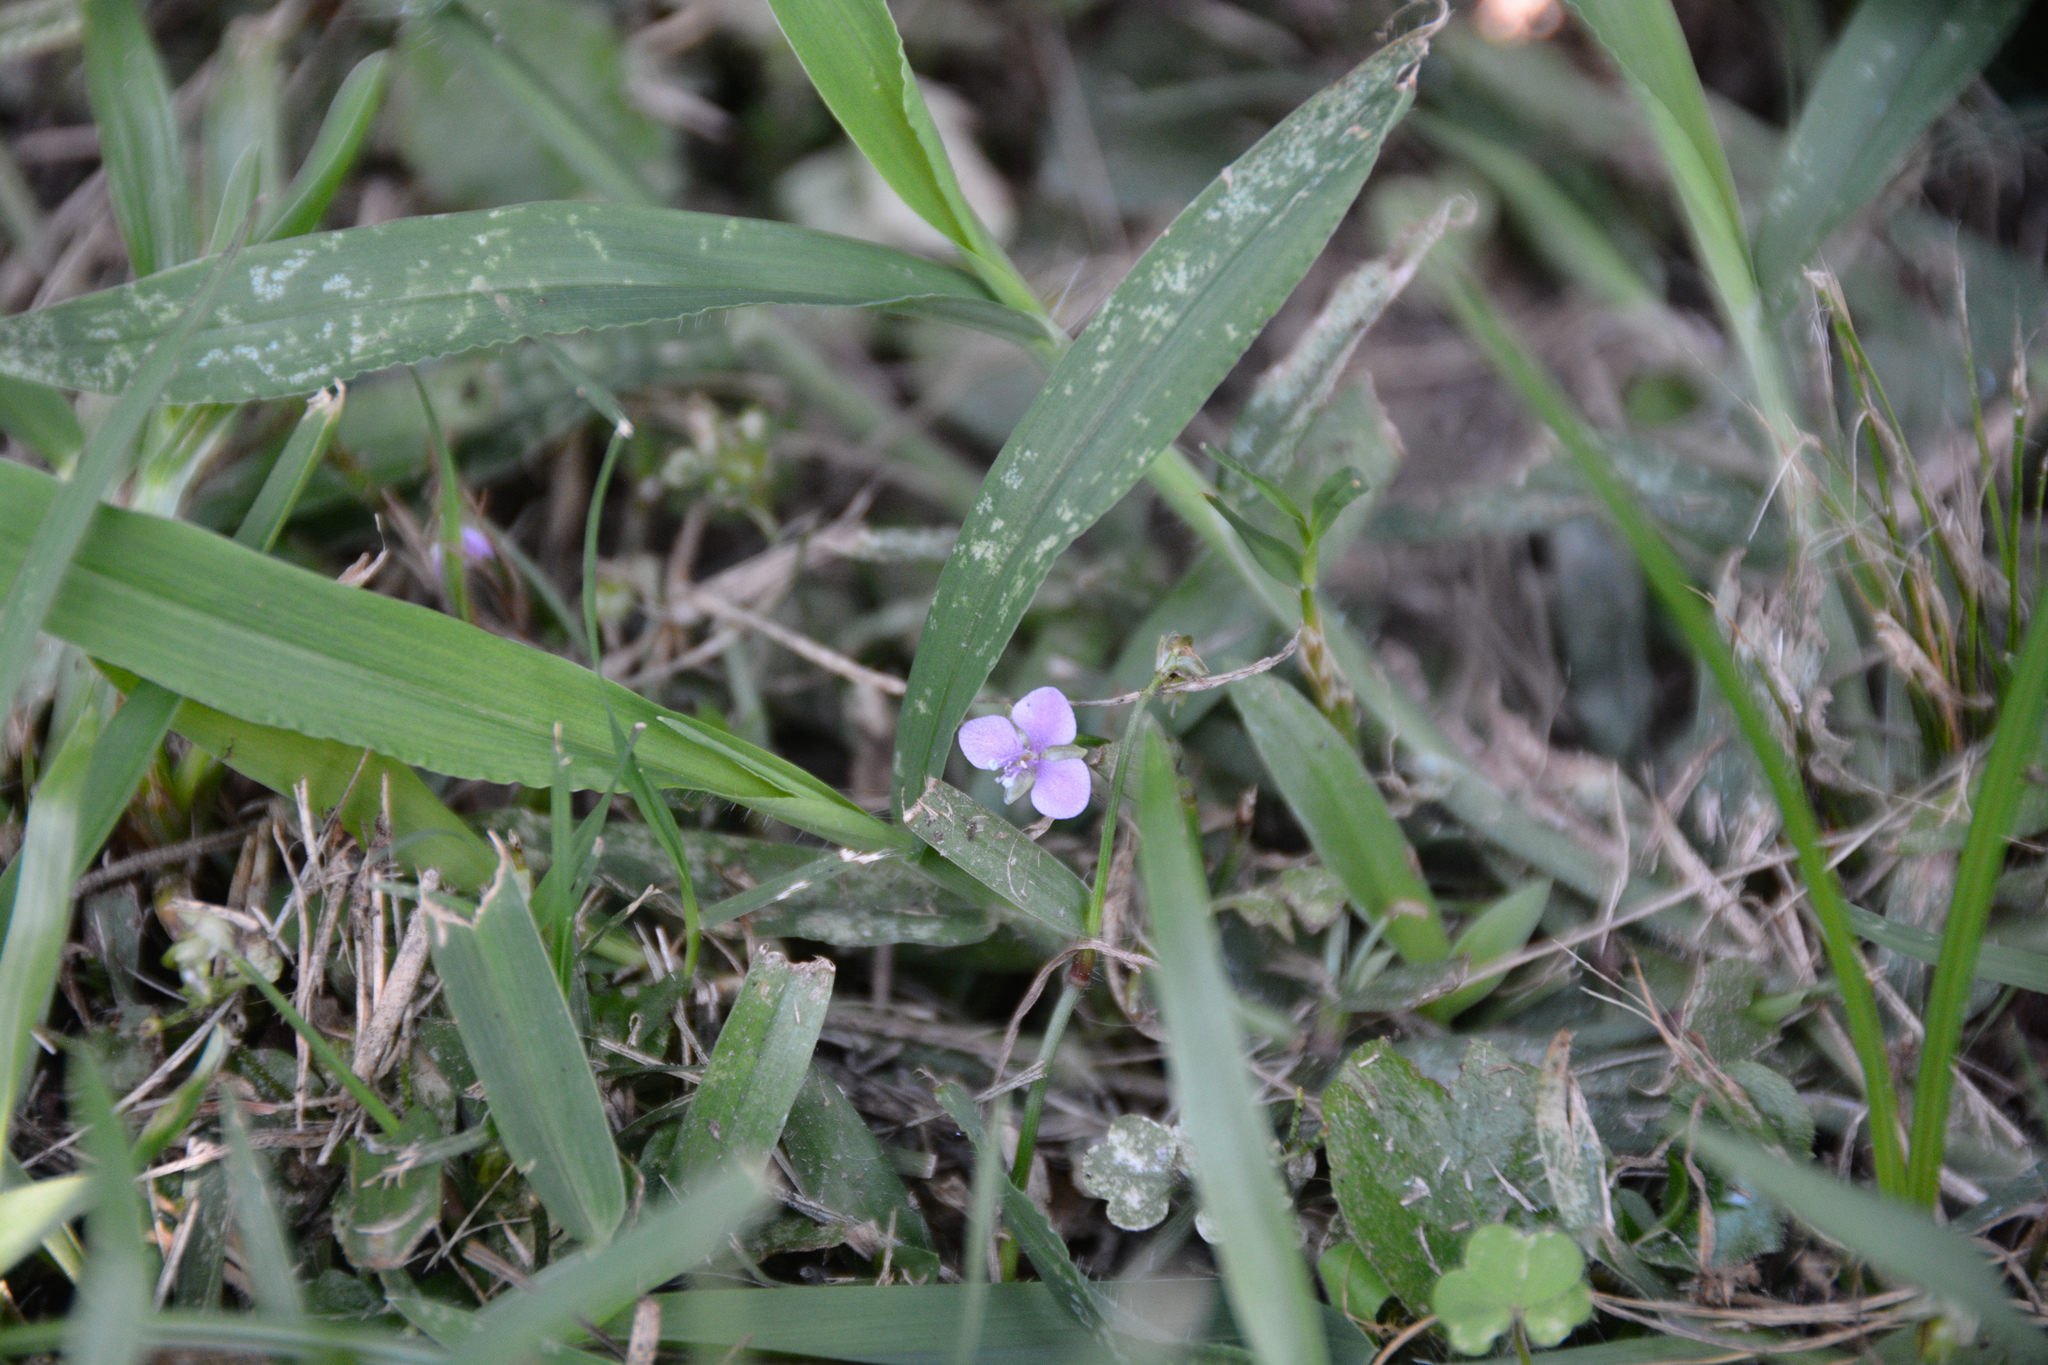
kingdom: Plantae
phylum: Tracheophyta
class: Liliopsida
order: Commelinales
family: Commelinaceae
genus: Murdannia
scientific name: Murdannia nudiflora
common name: Nakedstem dewflower
